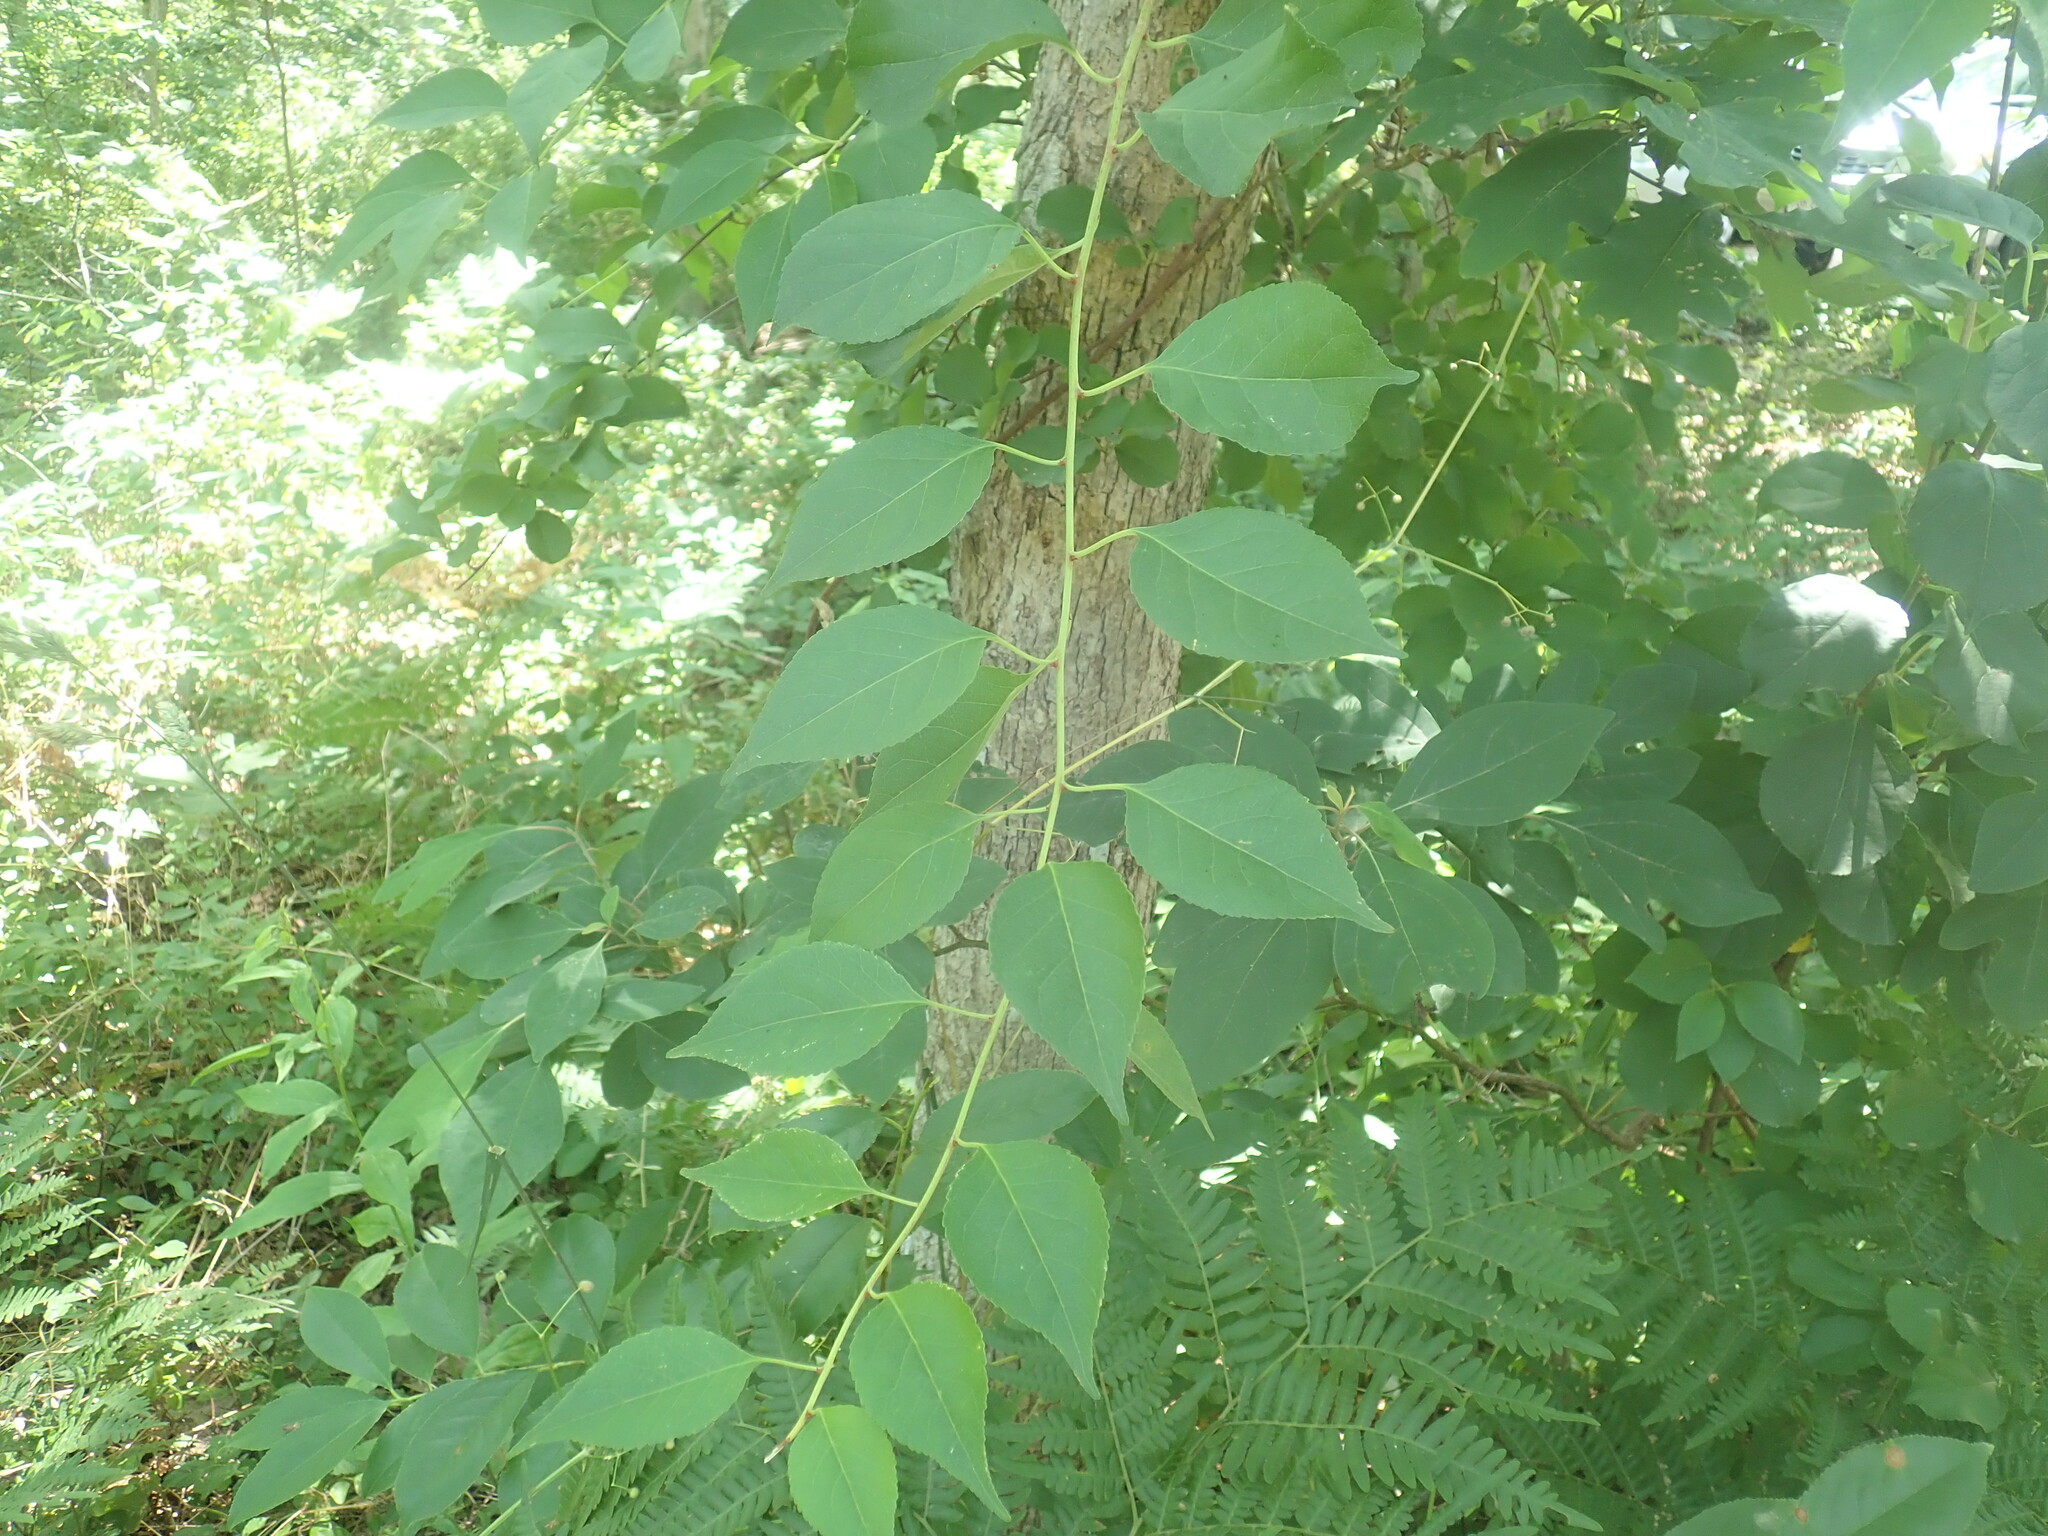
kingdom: Plantae
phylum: Tracheophyta
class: Magnoliopsida
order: Celastrales
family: Celastraceae
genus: Celastrus
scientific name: Celastrus orbiculatus
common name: Oriental bittersweet
